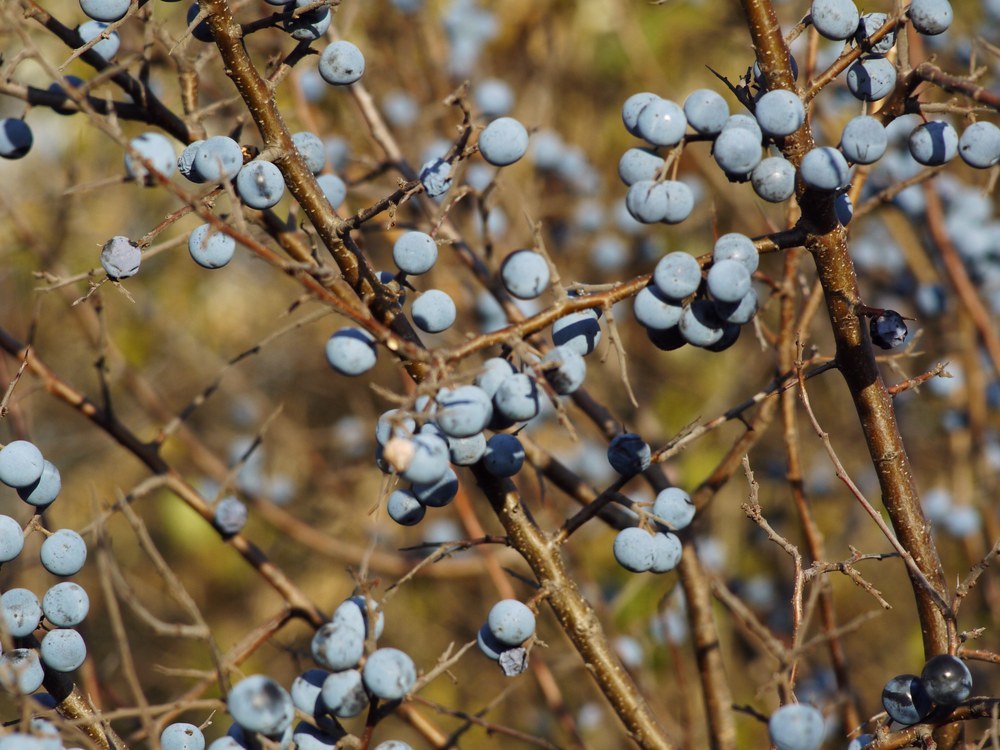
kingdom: Plantae
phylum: Tracheophyta
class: Magnoliopsida
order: Rosales
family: Rosaceae
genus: Prunus
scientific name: Prunus spinosa
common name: Blackthorn
